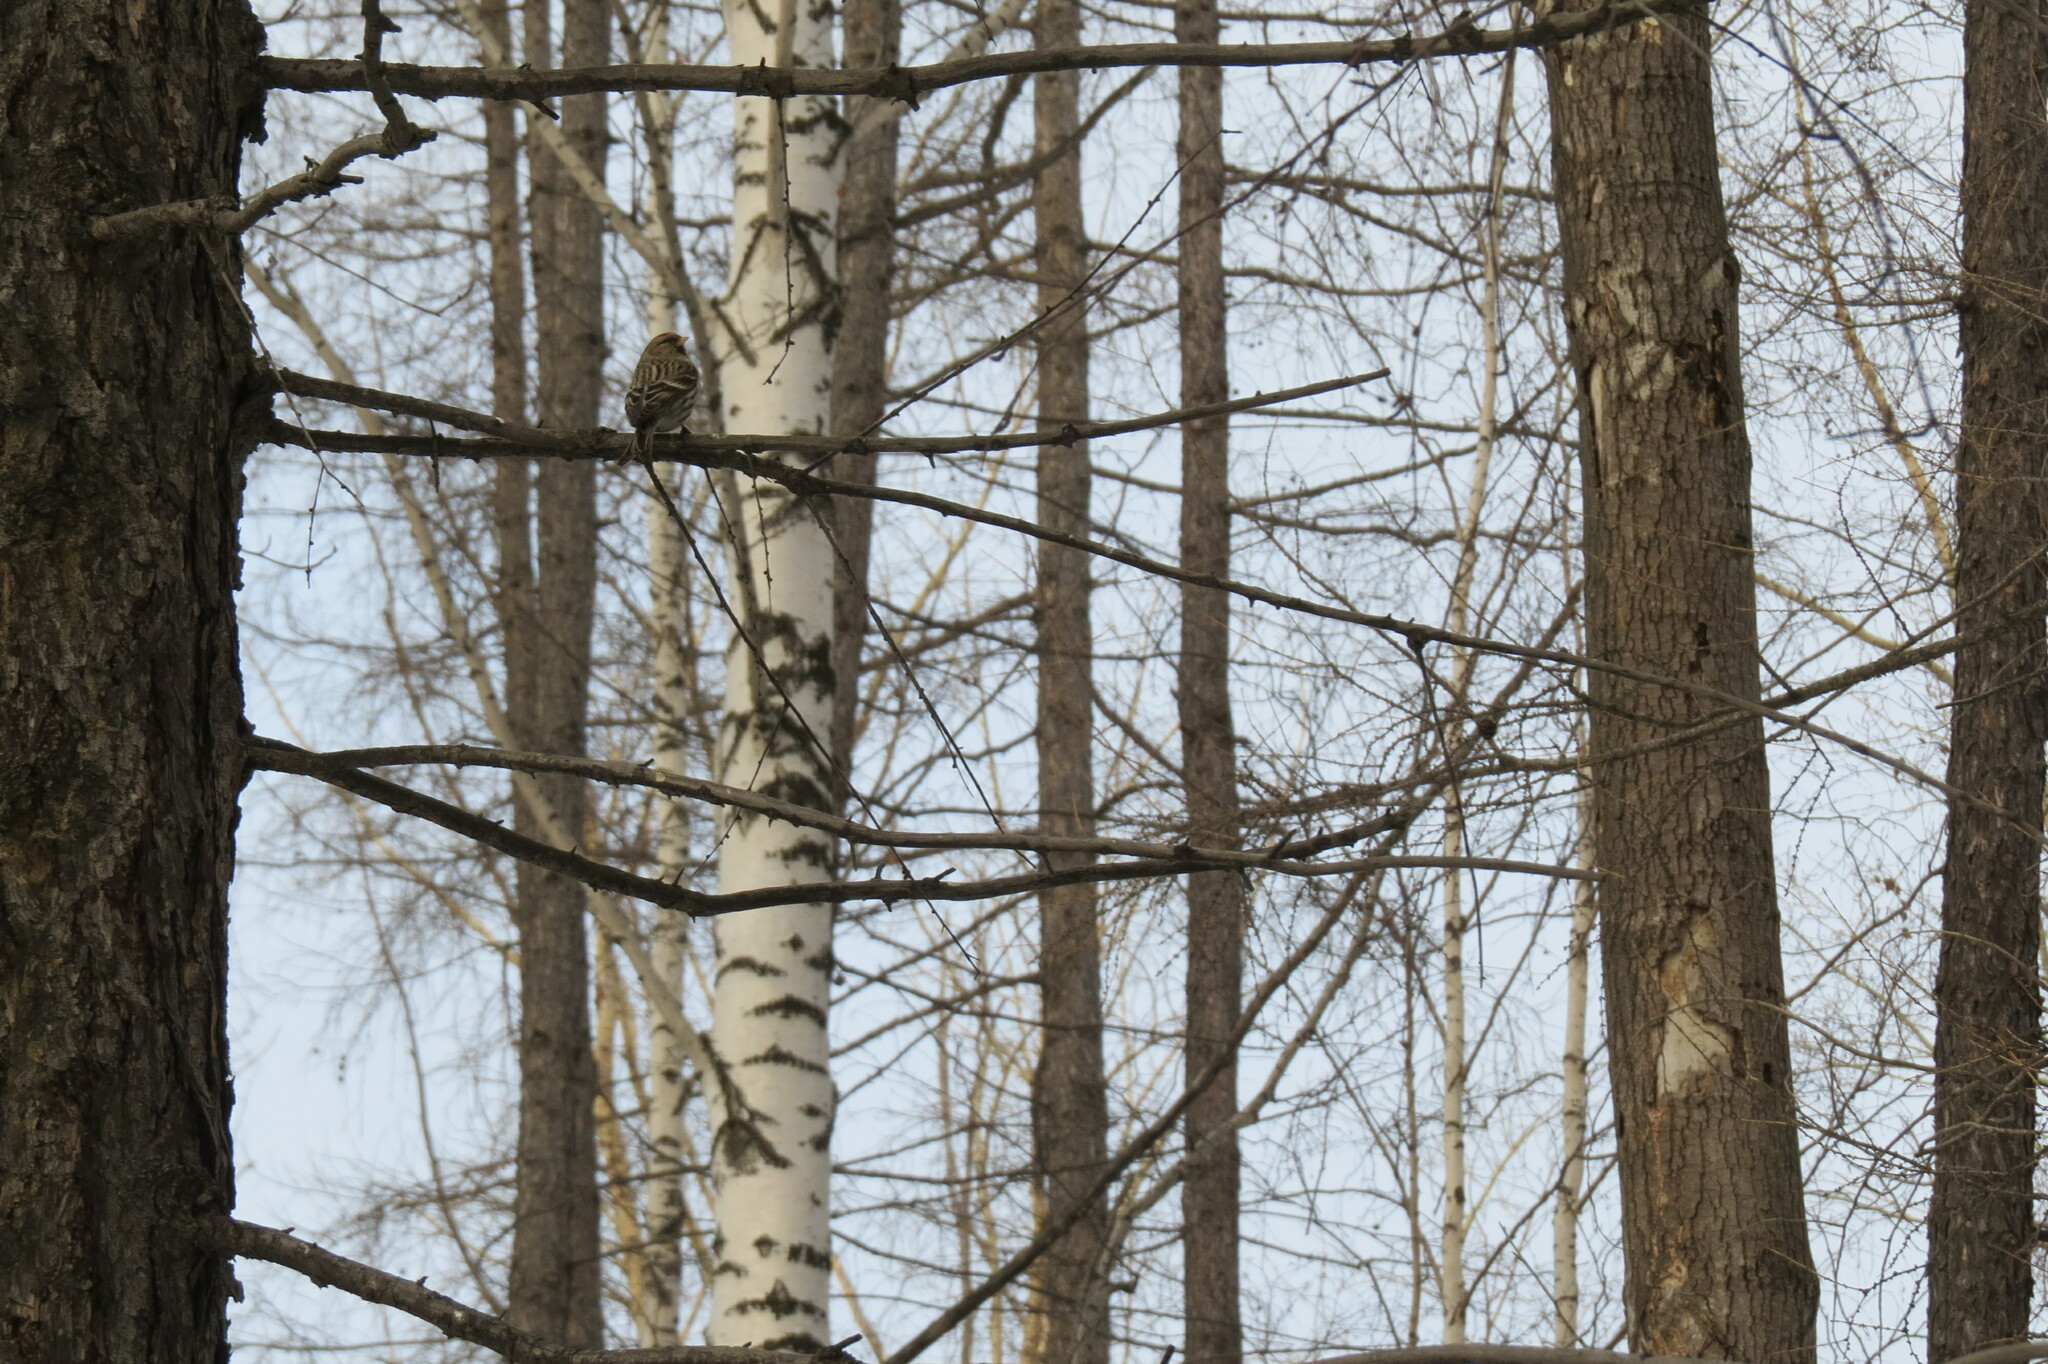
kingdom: Animalia
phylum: Chordata
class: Aves
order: Passeriformes
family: Fringillidae
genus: Acanthis
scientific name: Acanthis flammea
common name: Common redpoll
